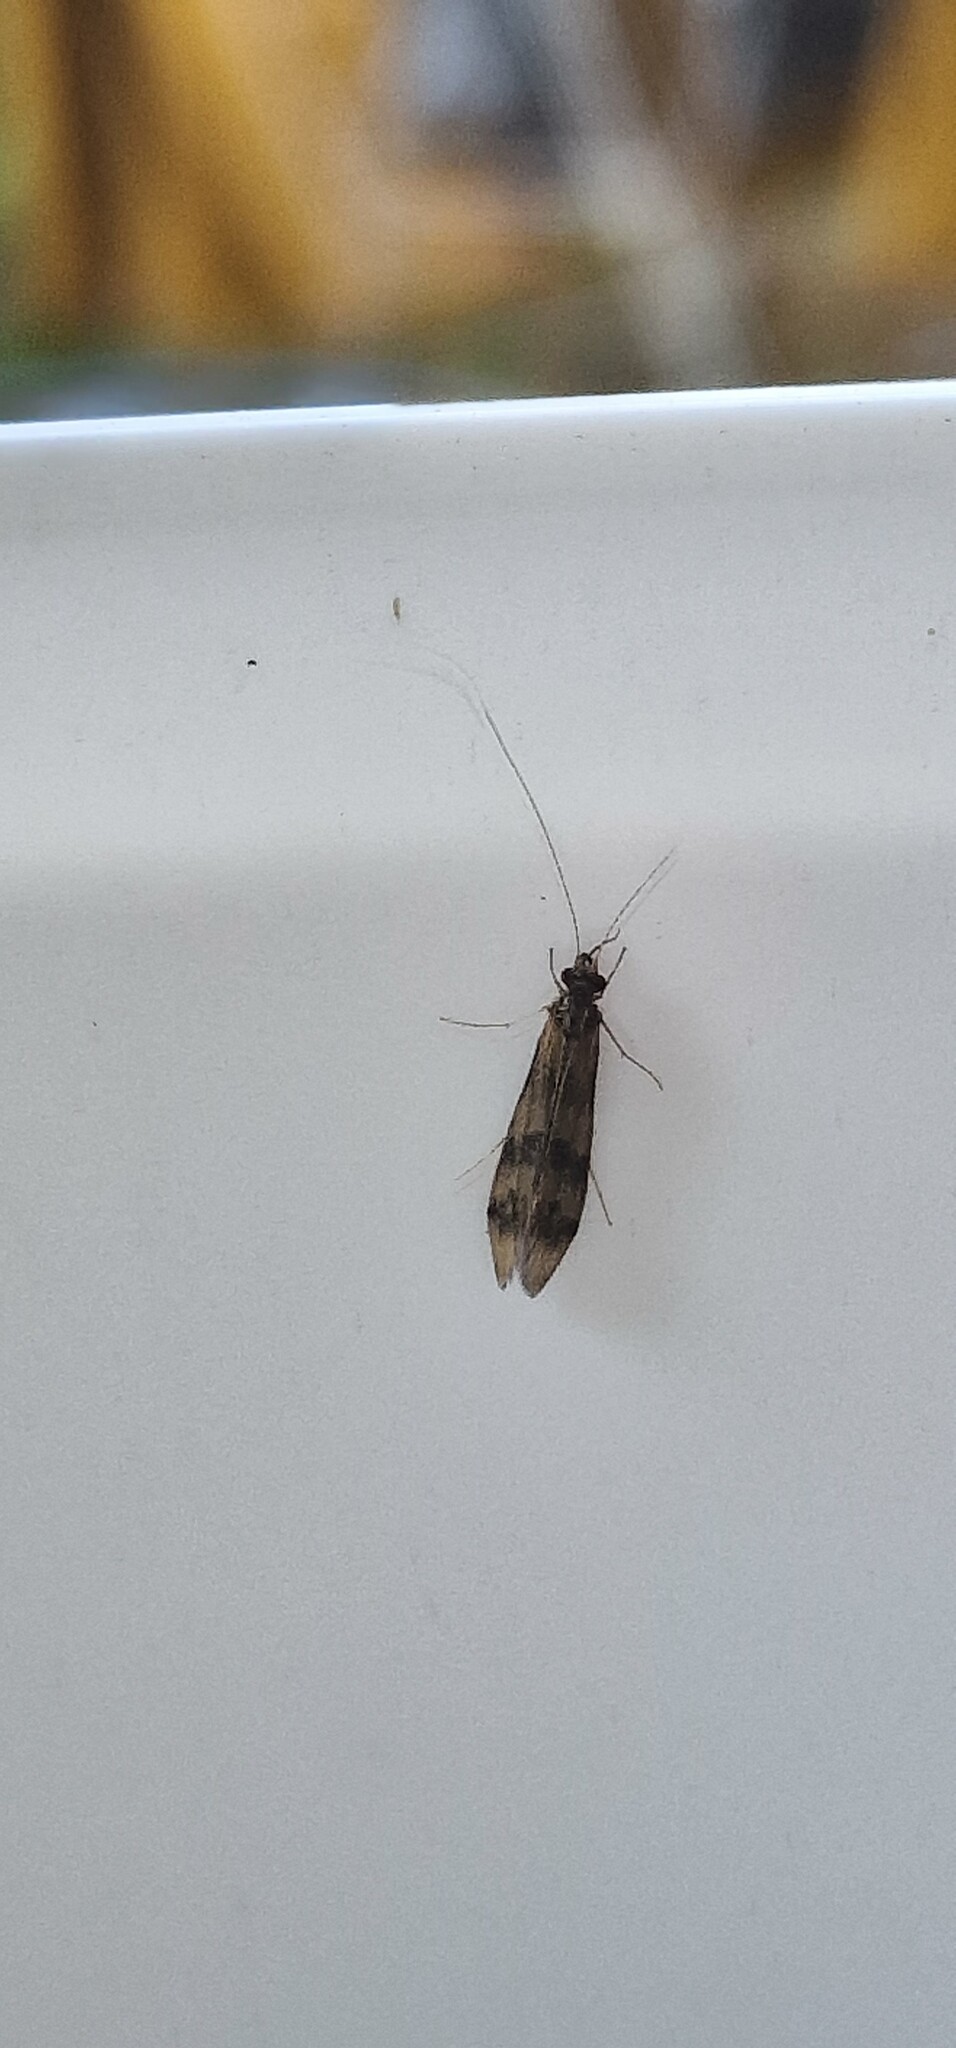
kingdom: Animalia
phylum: Arthropoda
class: Insecta
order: Trichoptera
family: Leptoceridae
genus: Mystacides
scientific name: Mystacides longicornis
